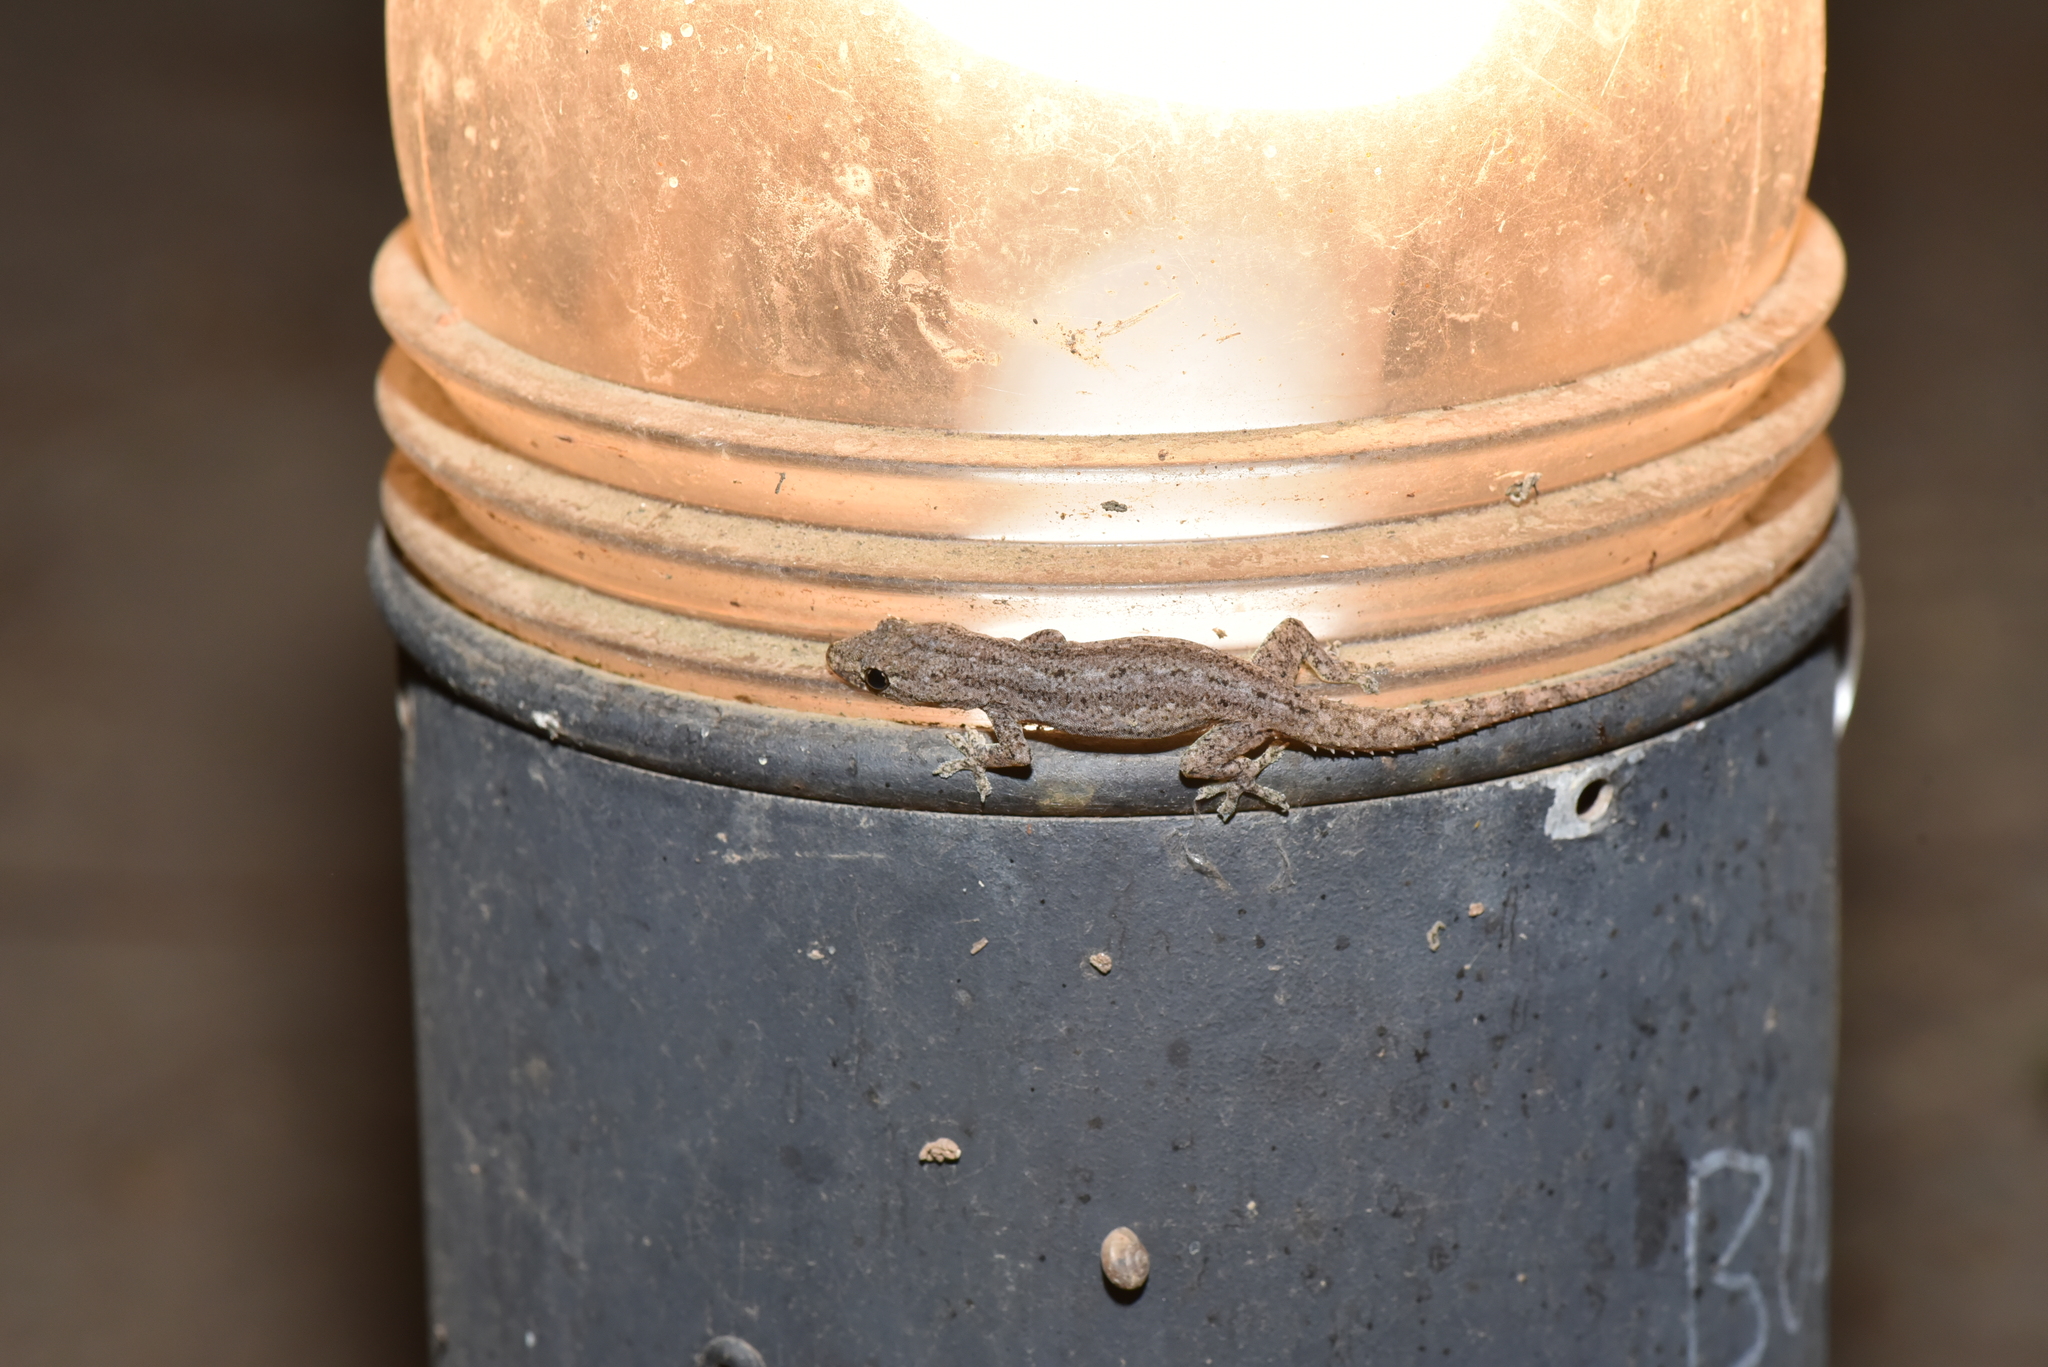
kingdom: Animalia
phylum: Chordata
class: Squamata
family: Gekkonidae
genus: Hemidactylus
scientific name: Hemidactylus frenatus
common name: Common house gecko
